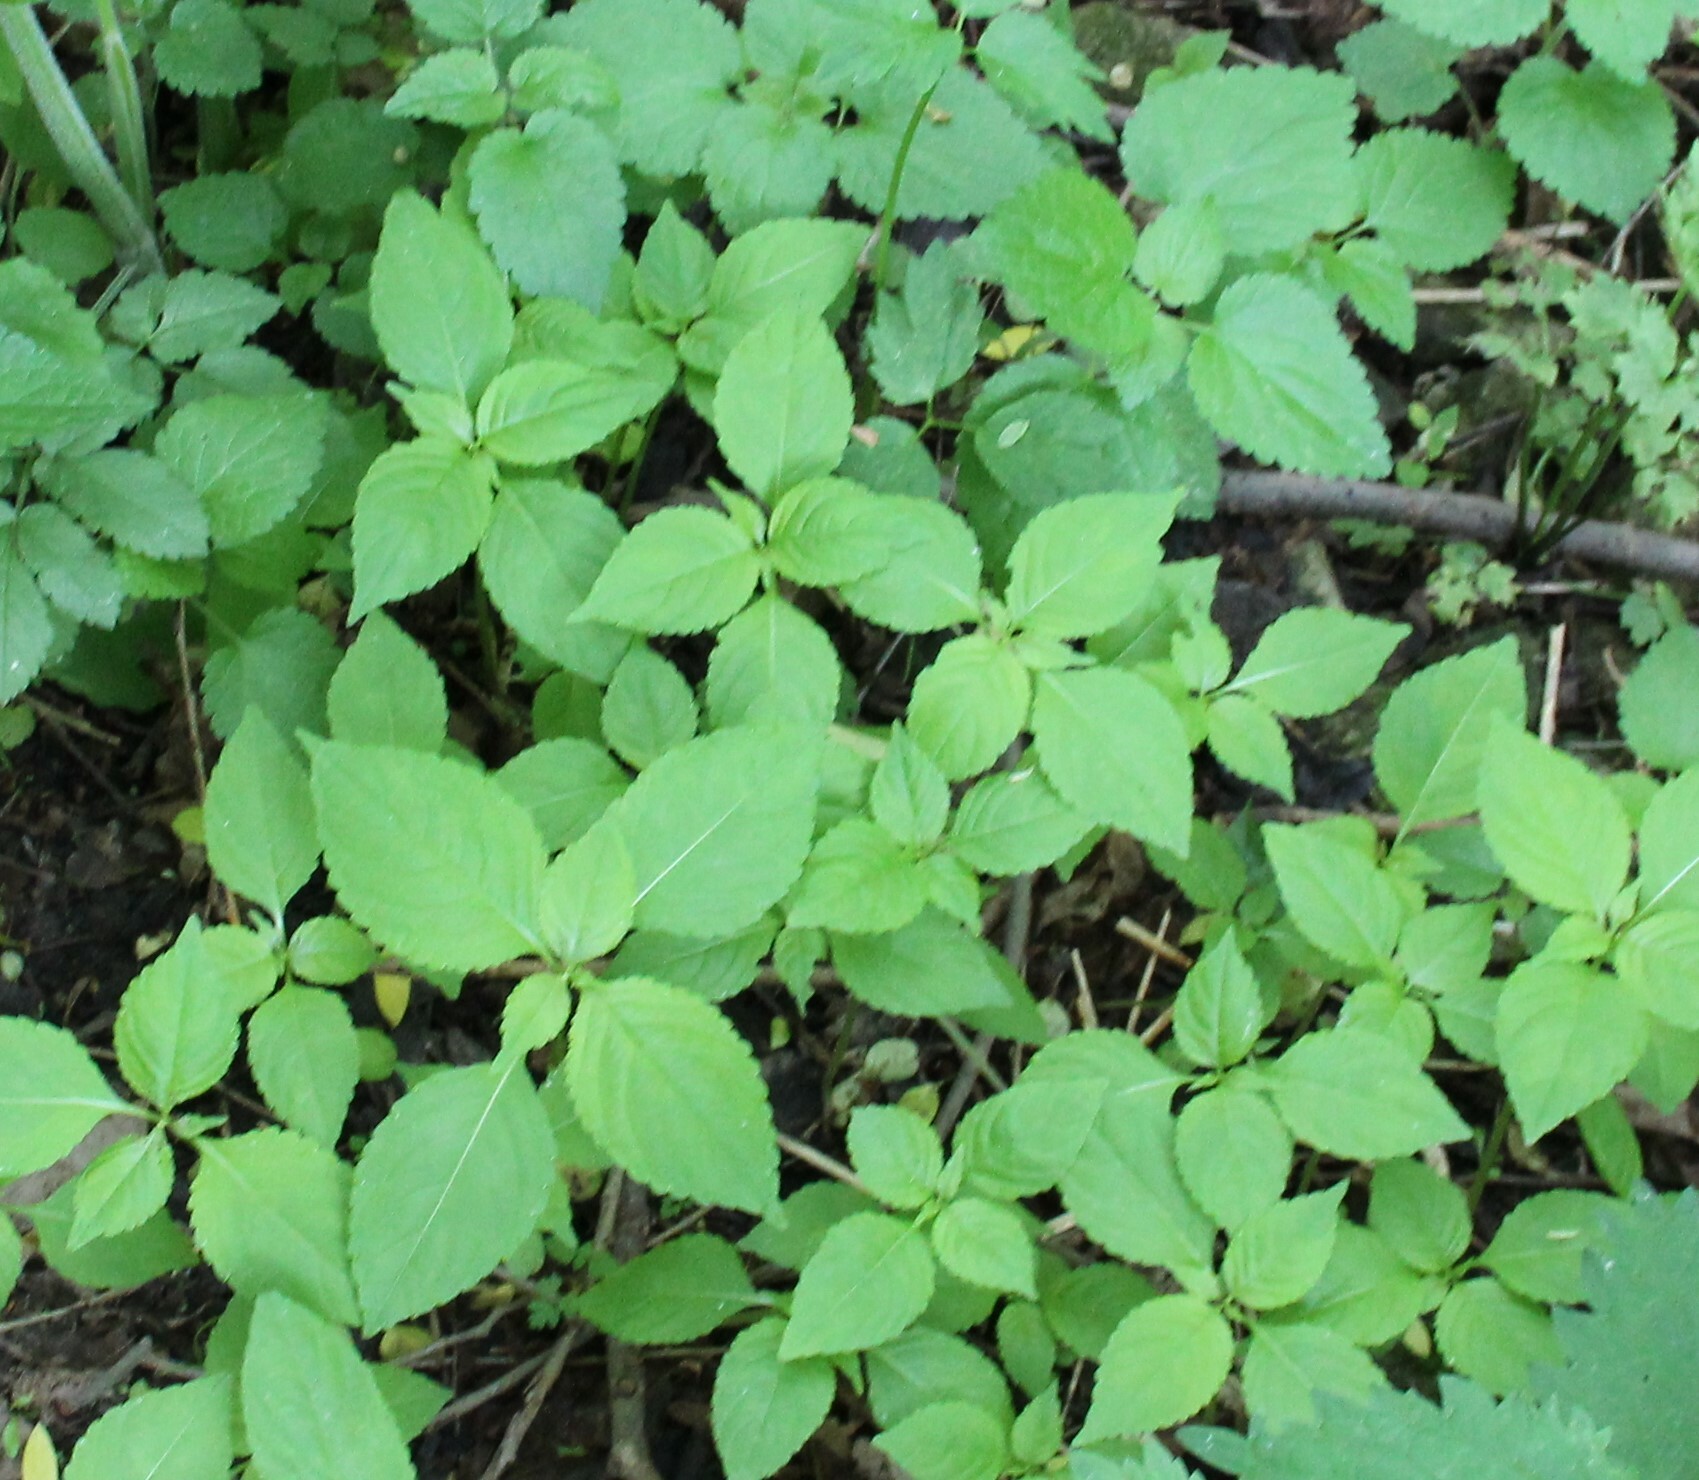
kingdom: Plantae
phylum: Tracheophyta
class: Magnoliopsida
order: Ericales
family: Balsaminaceae
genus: Impatiens
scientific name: Impatiens parviflora
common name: Small balsam
